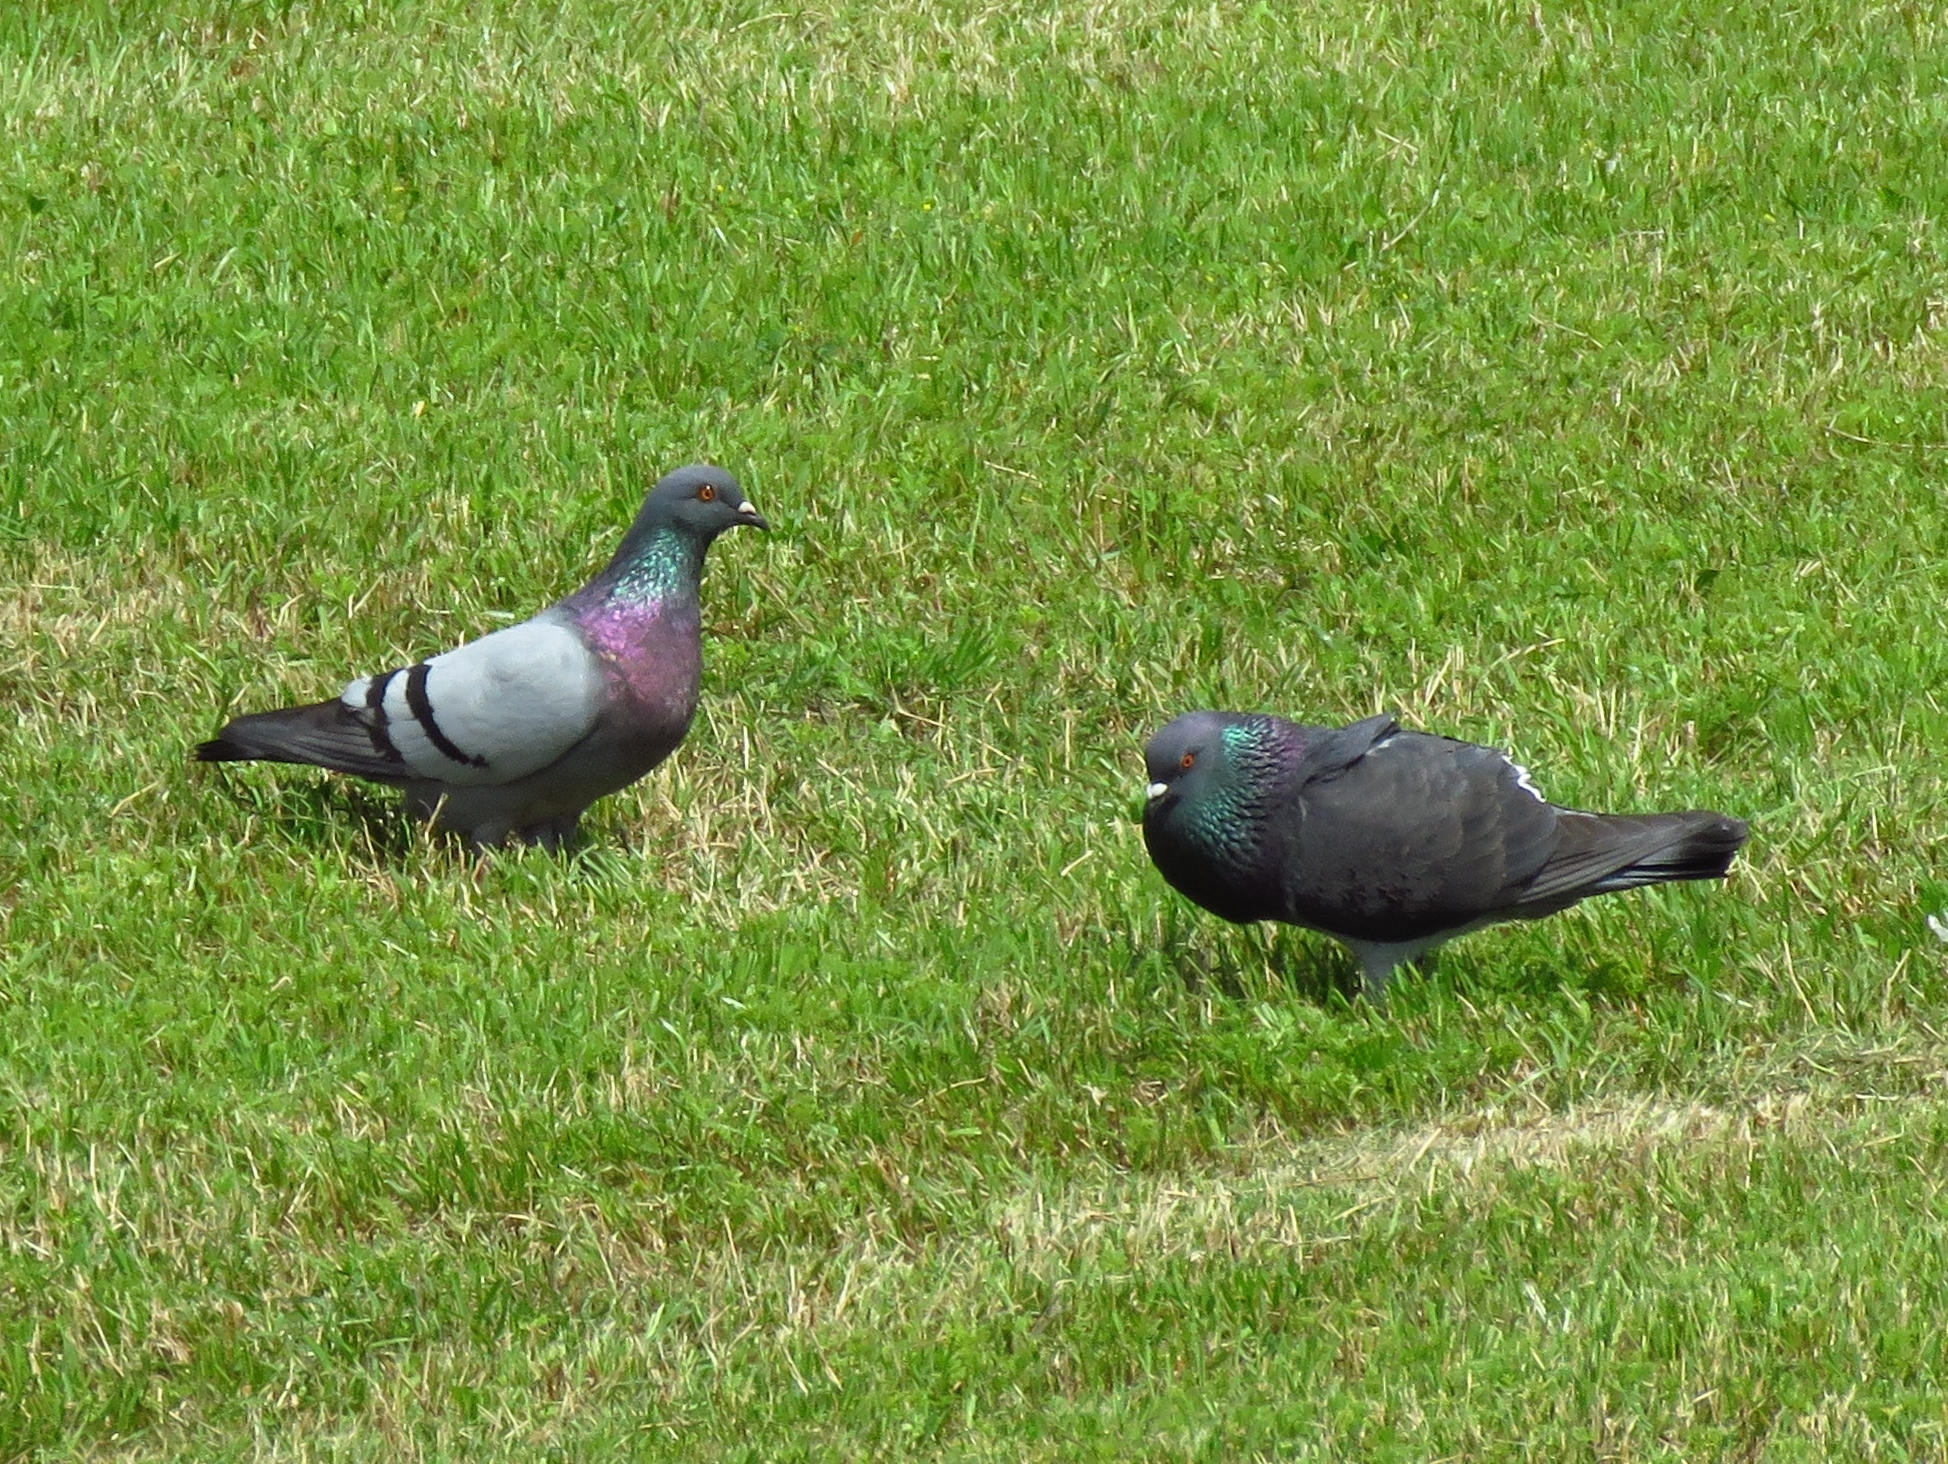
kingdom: Animalia
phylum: Chordata
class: Aves
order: Columbiformes
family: Columbidae
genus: Columba
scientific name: Columba livia
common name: Rock pigeon
